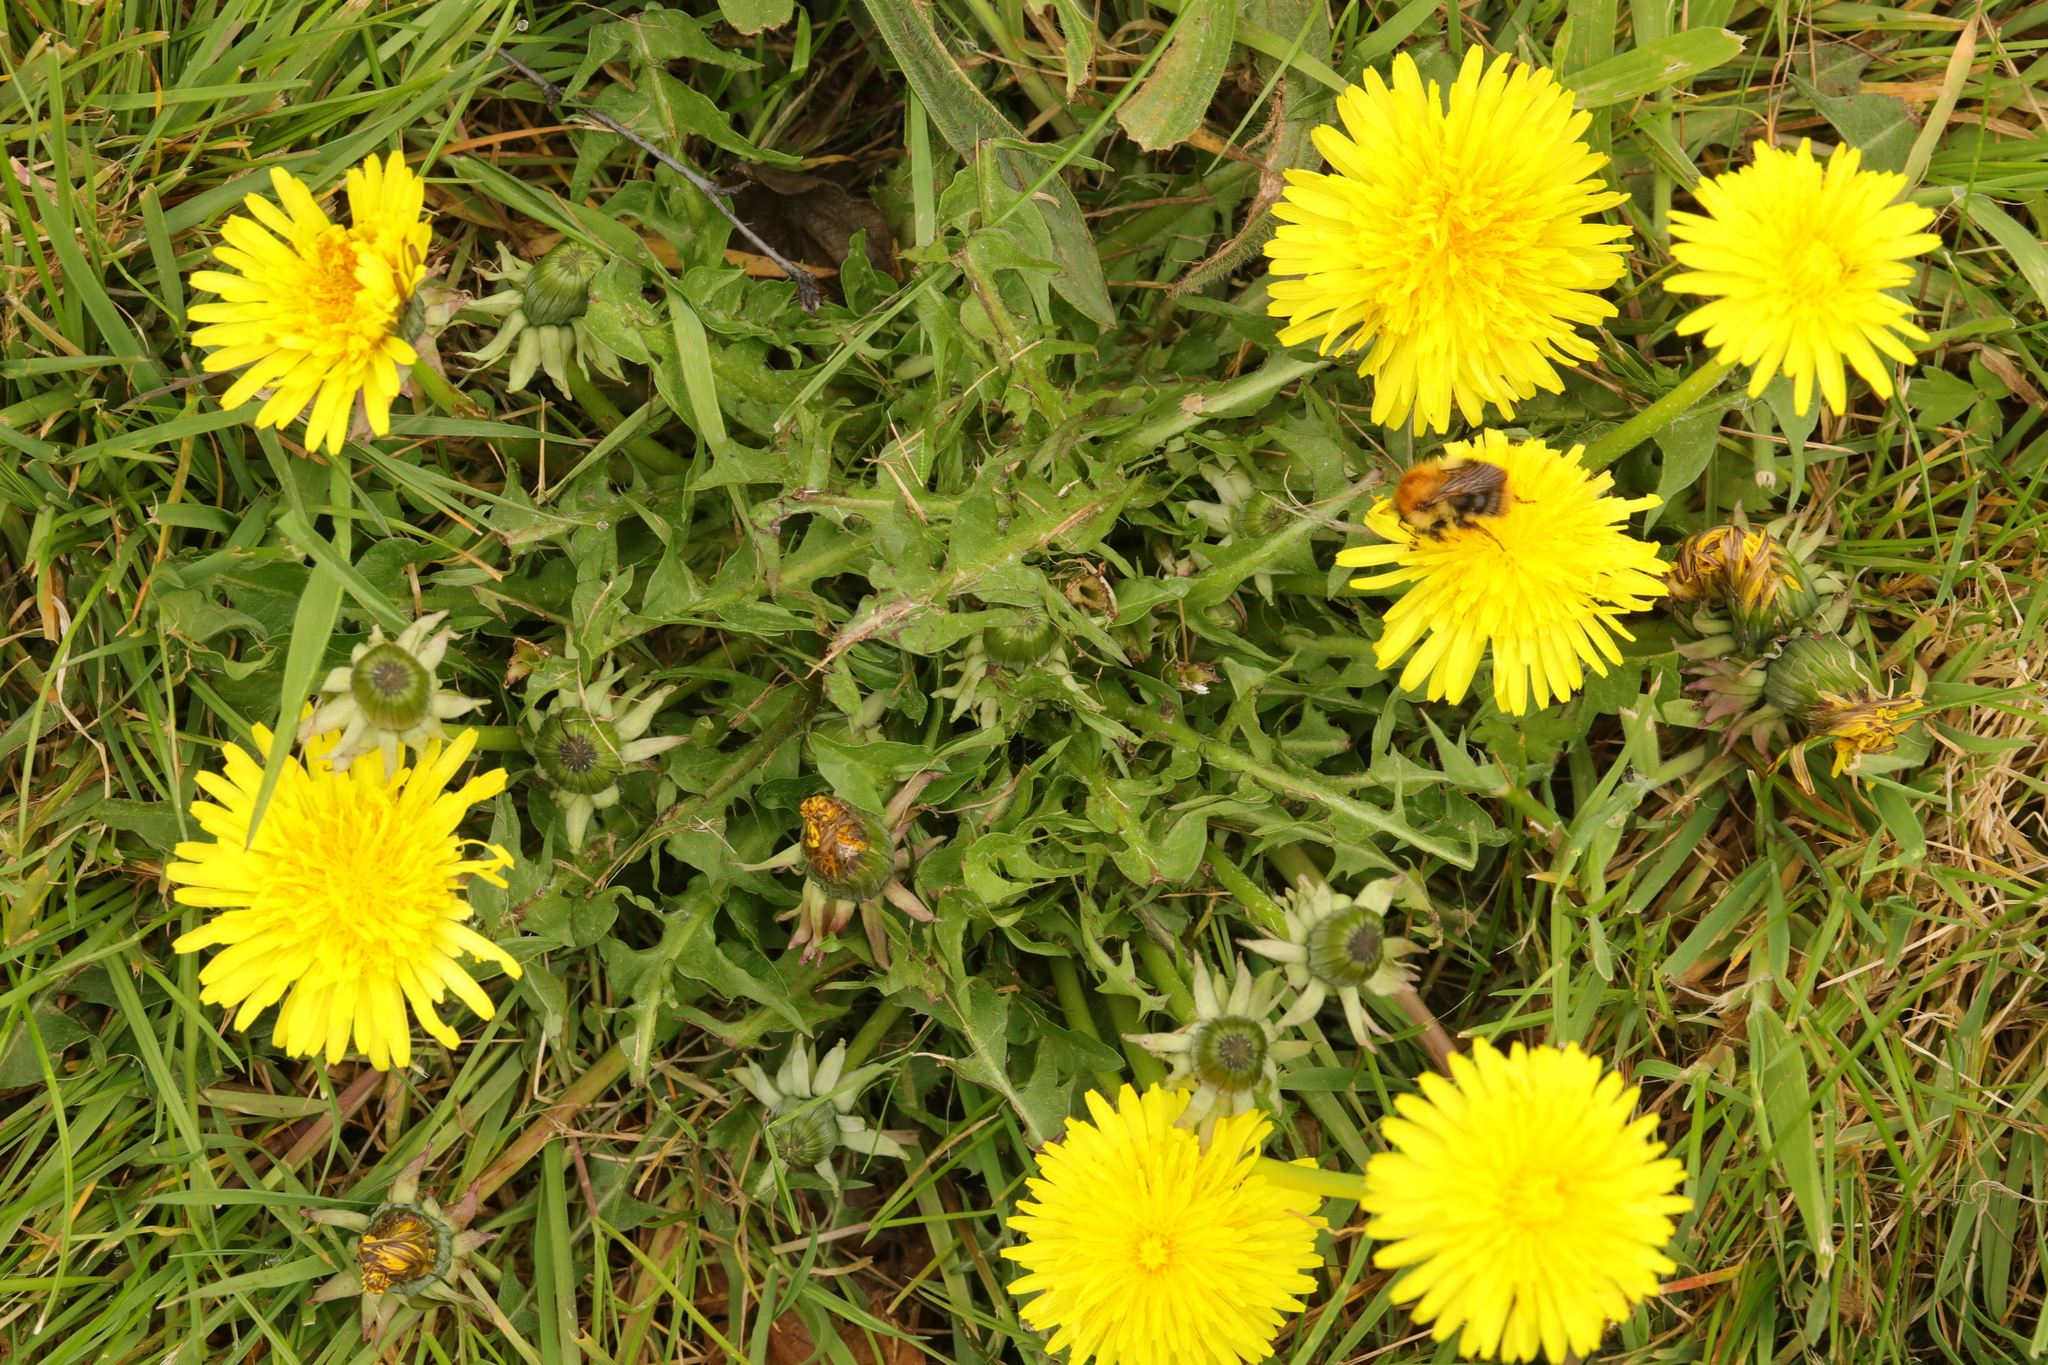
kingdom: Plantae
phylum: Tracheophyta
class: Magnoliopsida
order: Asterales
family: Asteraceae
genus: Taraxacum
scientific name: Taraxacum officinale
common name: Common dandelion
